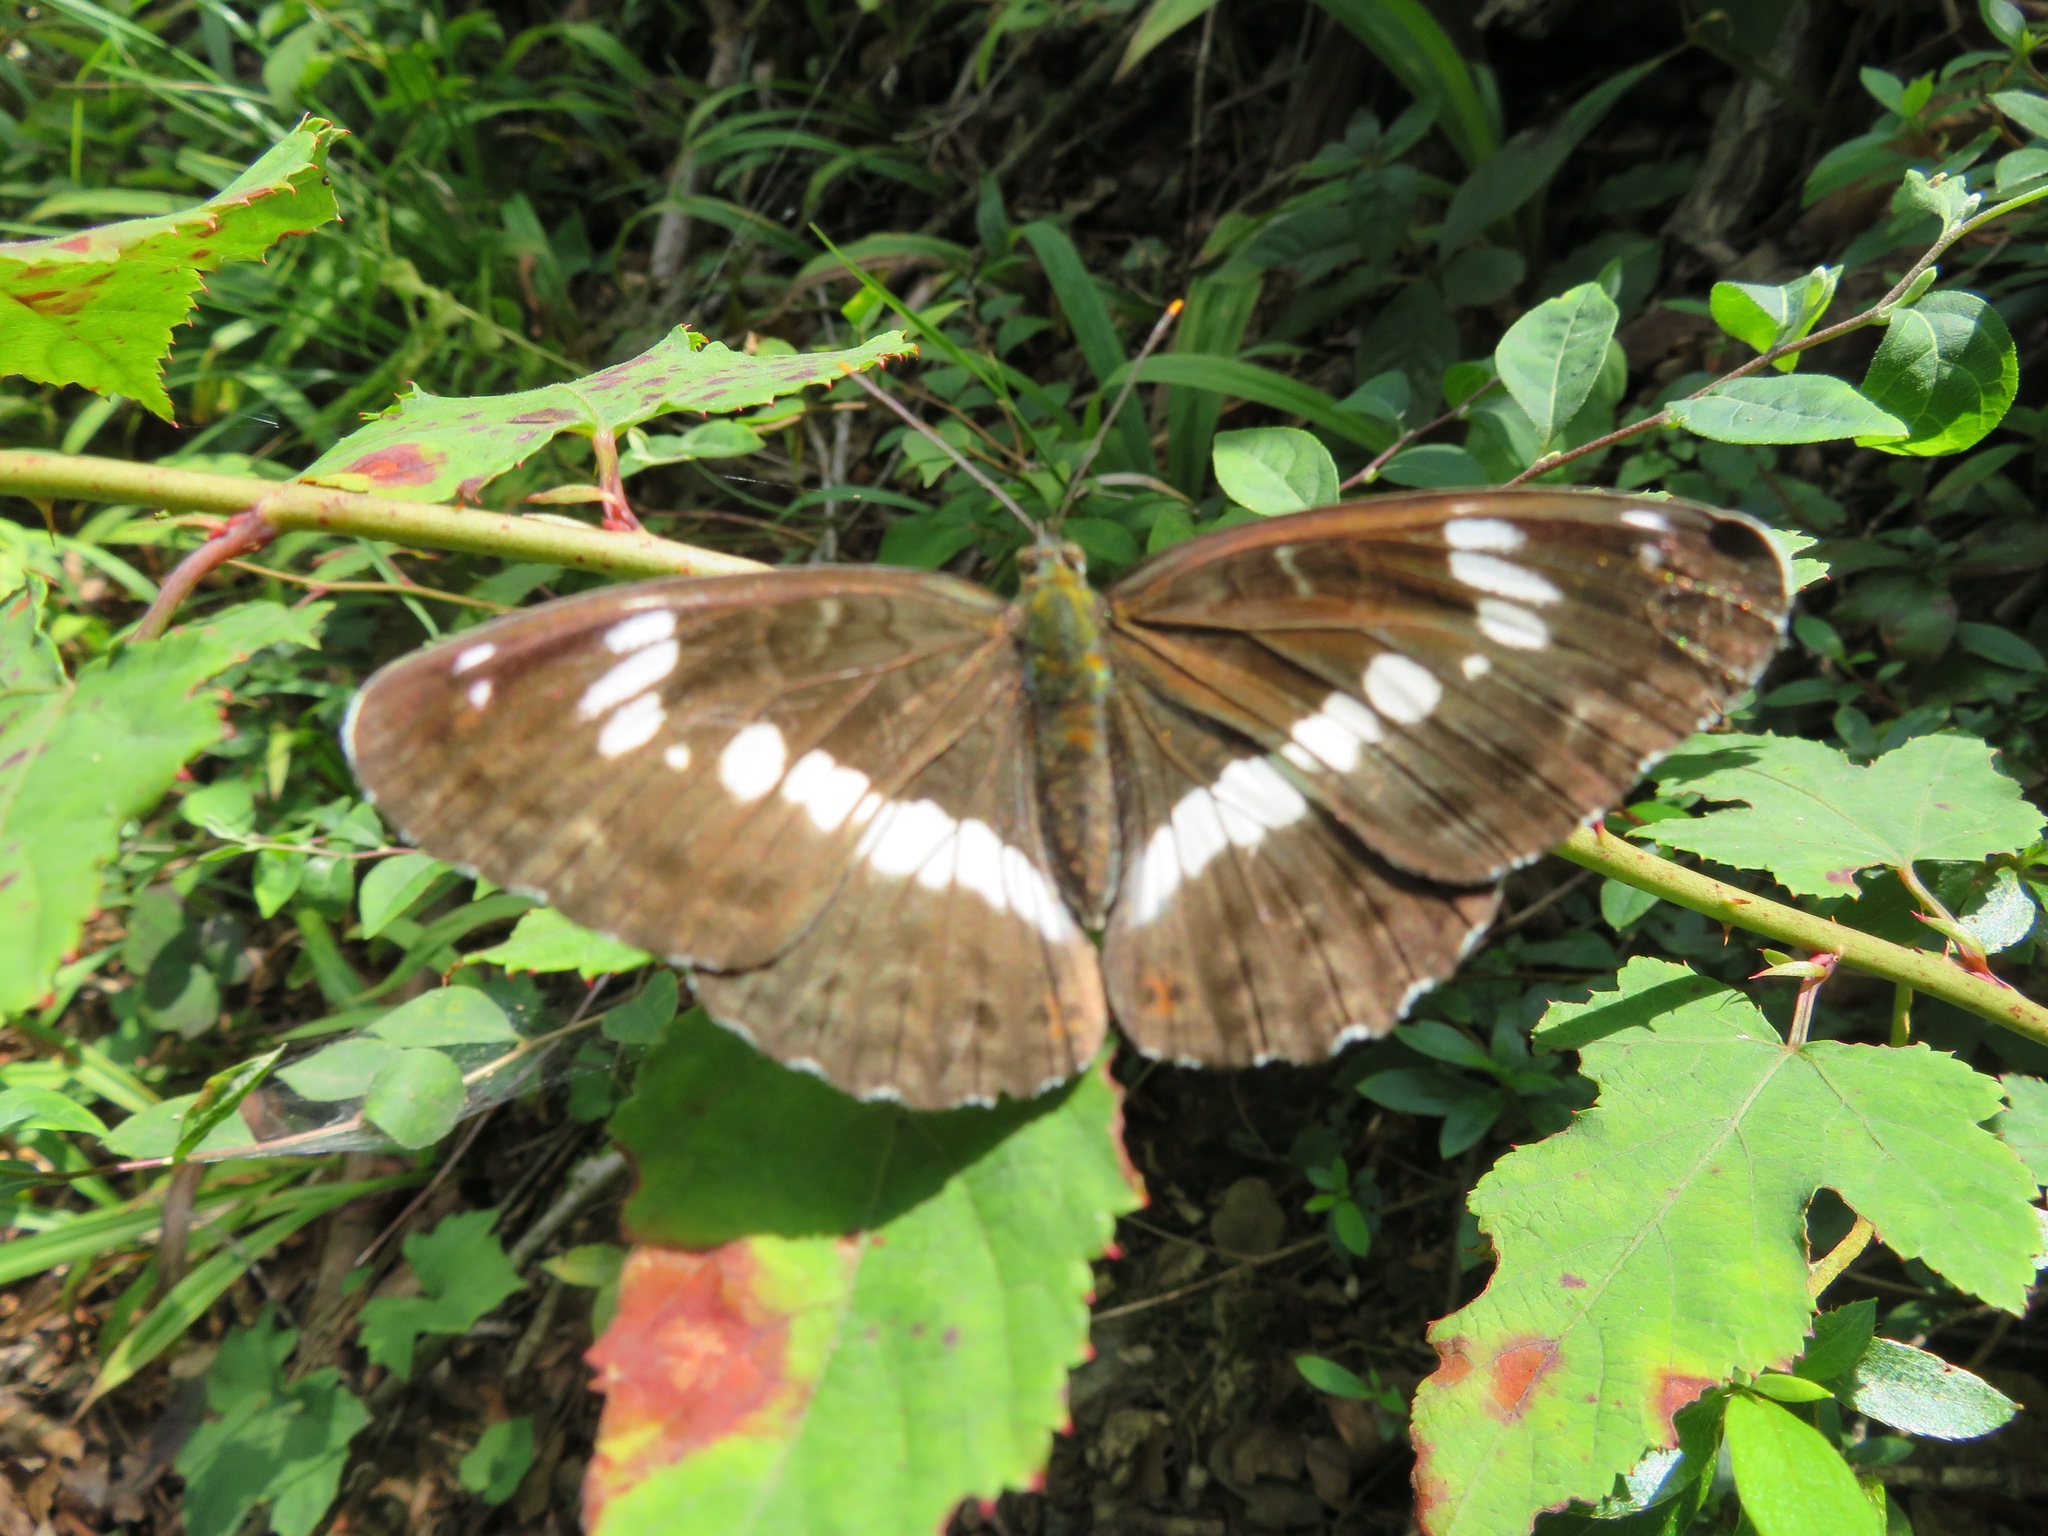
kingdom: Animalia
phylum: Arthropoda
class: Insecta
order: Lepidoptera
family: Nymphalidae
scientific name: Nymphalidae
